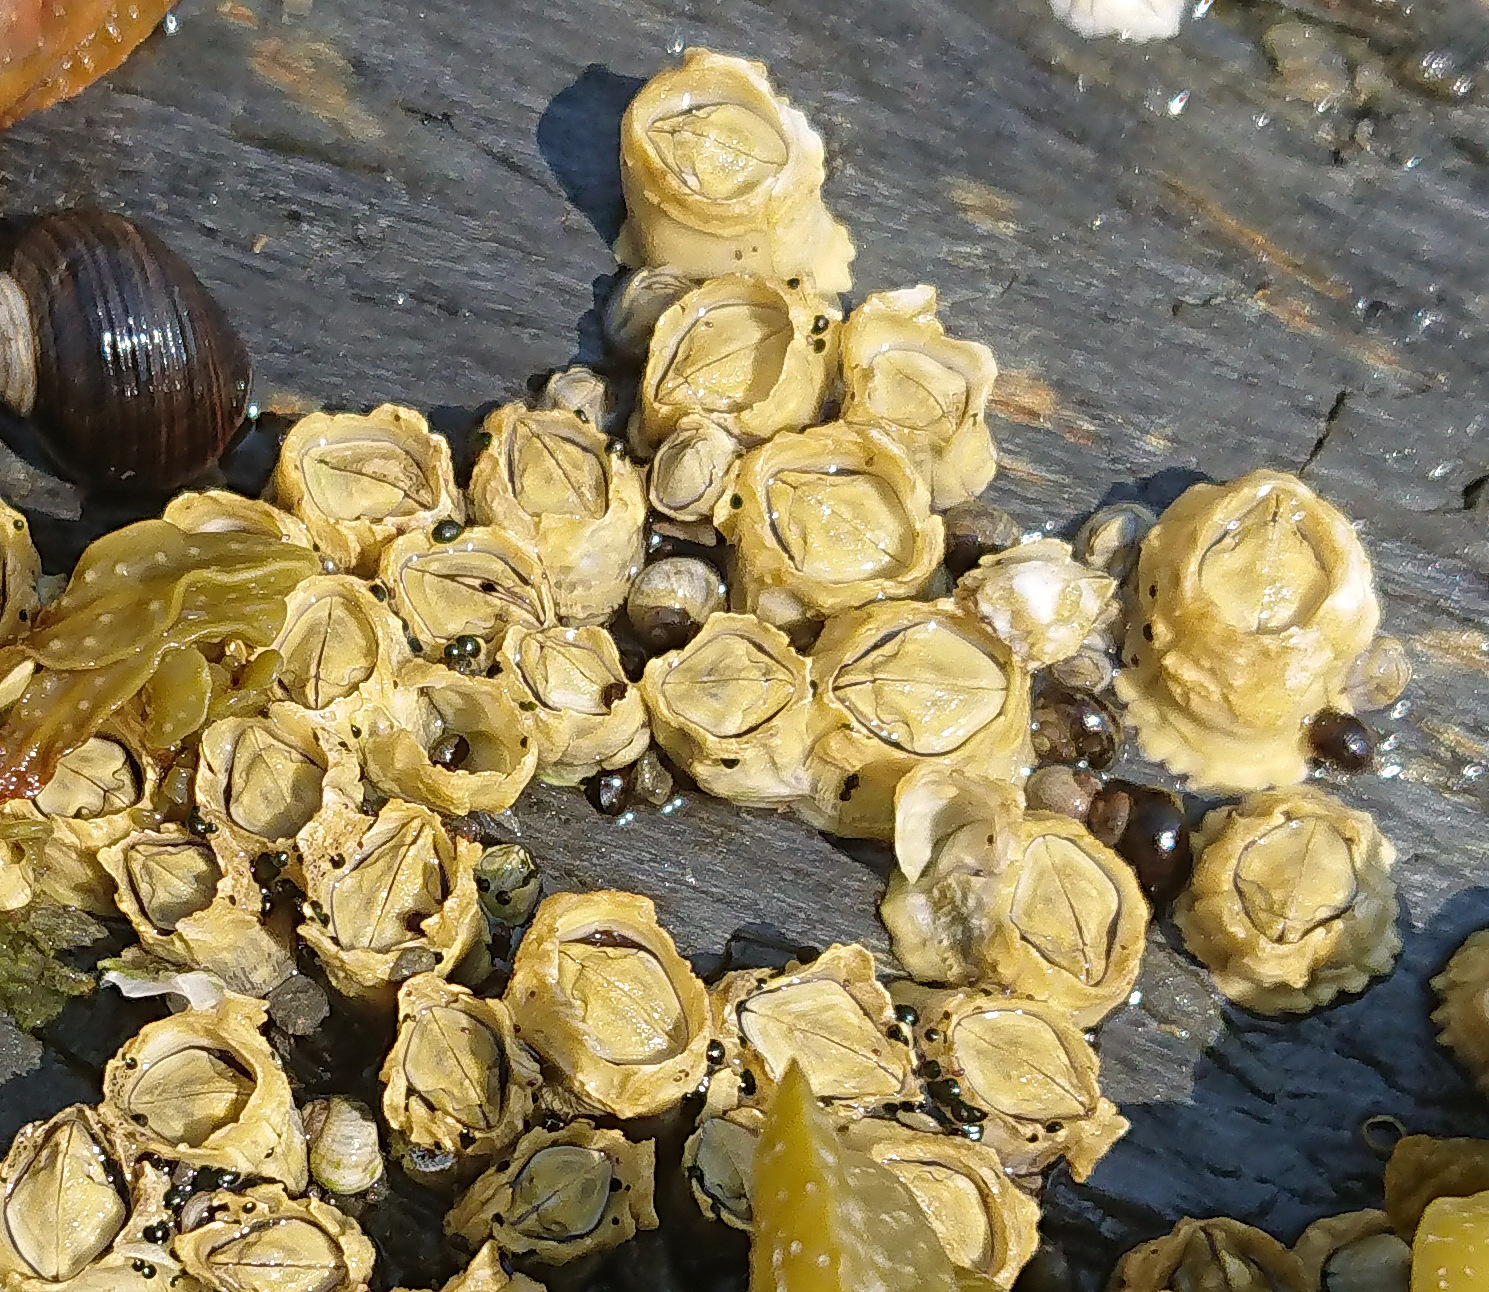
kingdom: Animalia
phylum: Arthropoda
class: Maxillopoda
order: Sessilia
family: Archaeobalanidae
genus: Semibalanus
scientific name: Semibalanus balanoides
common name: Acorn barnacle
